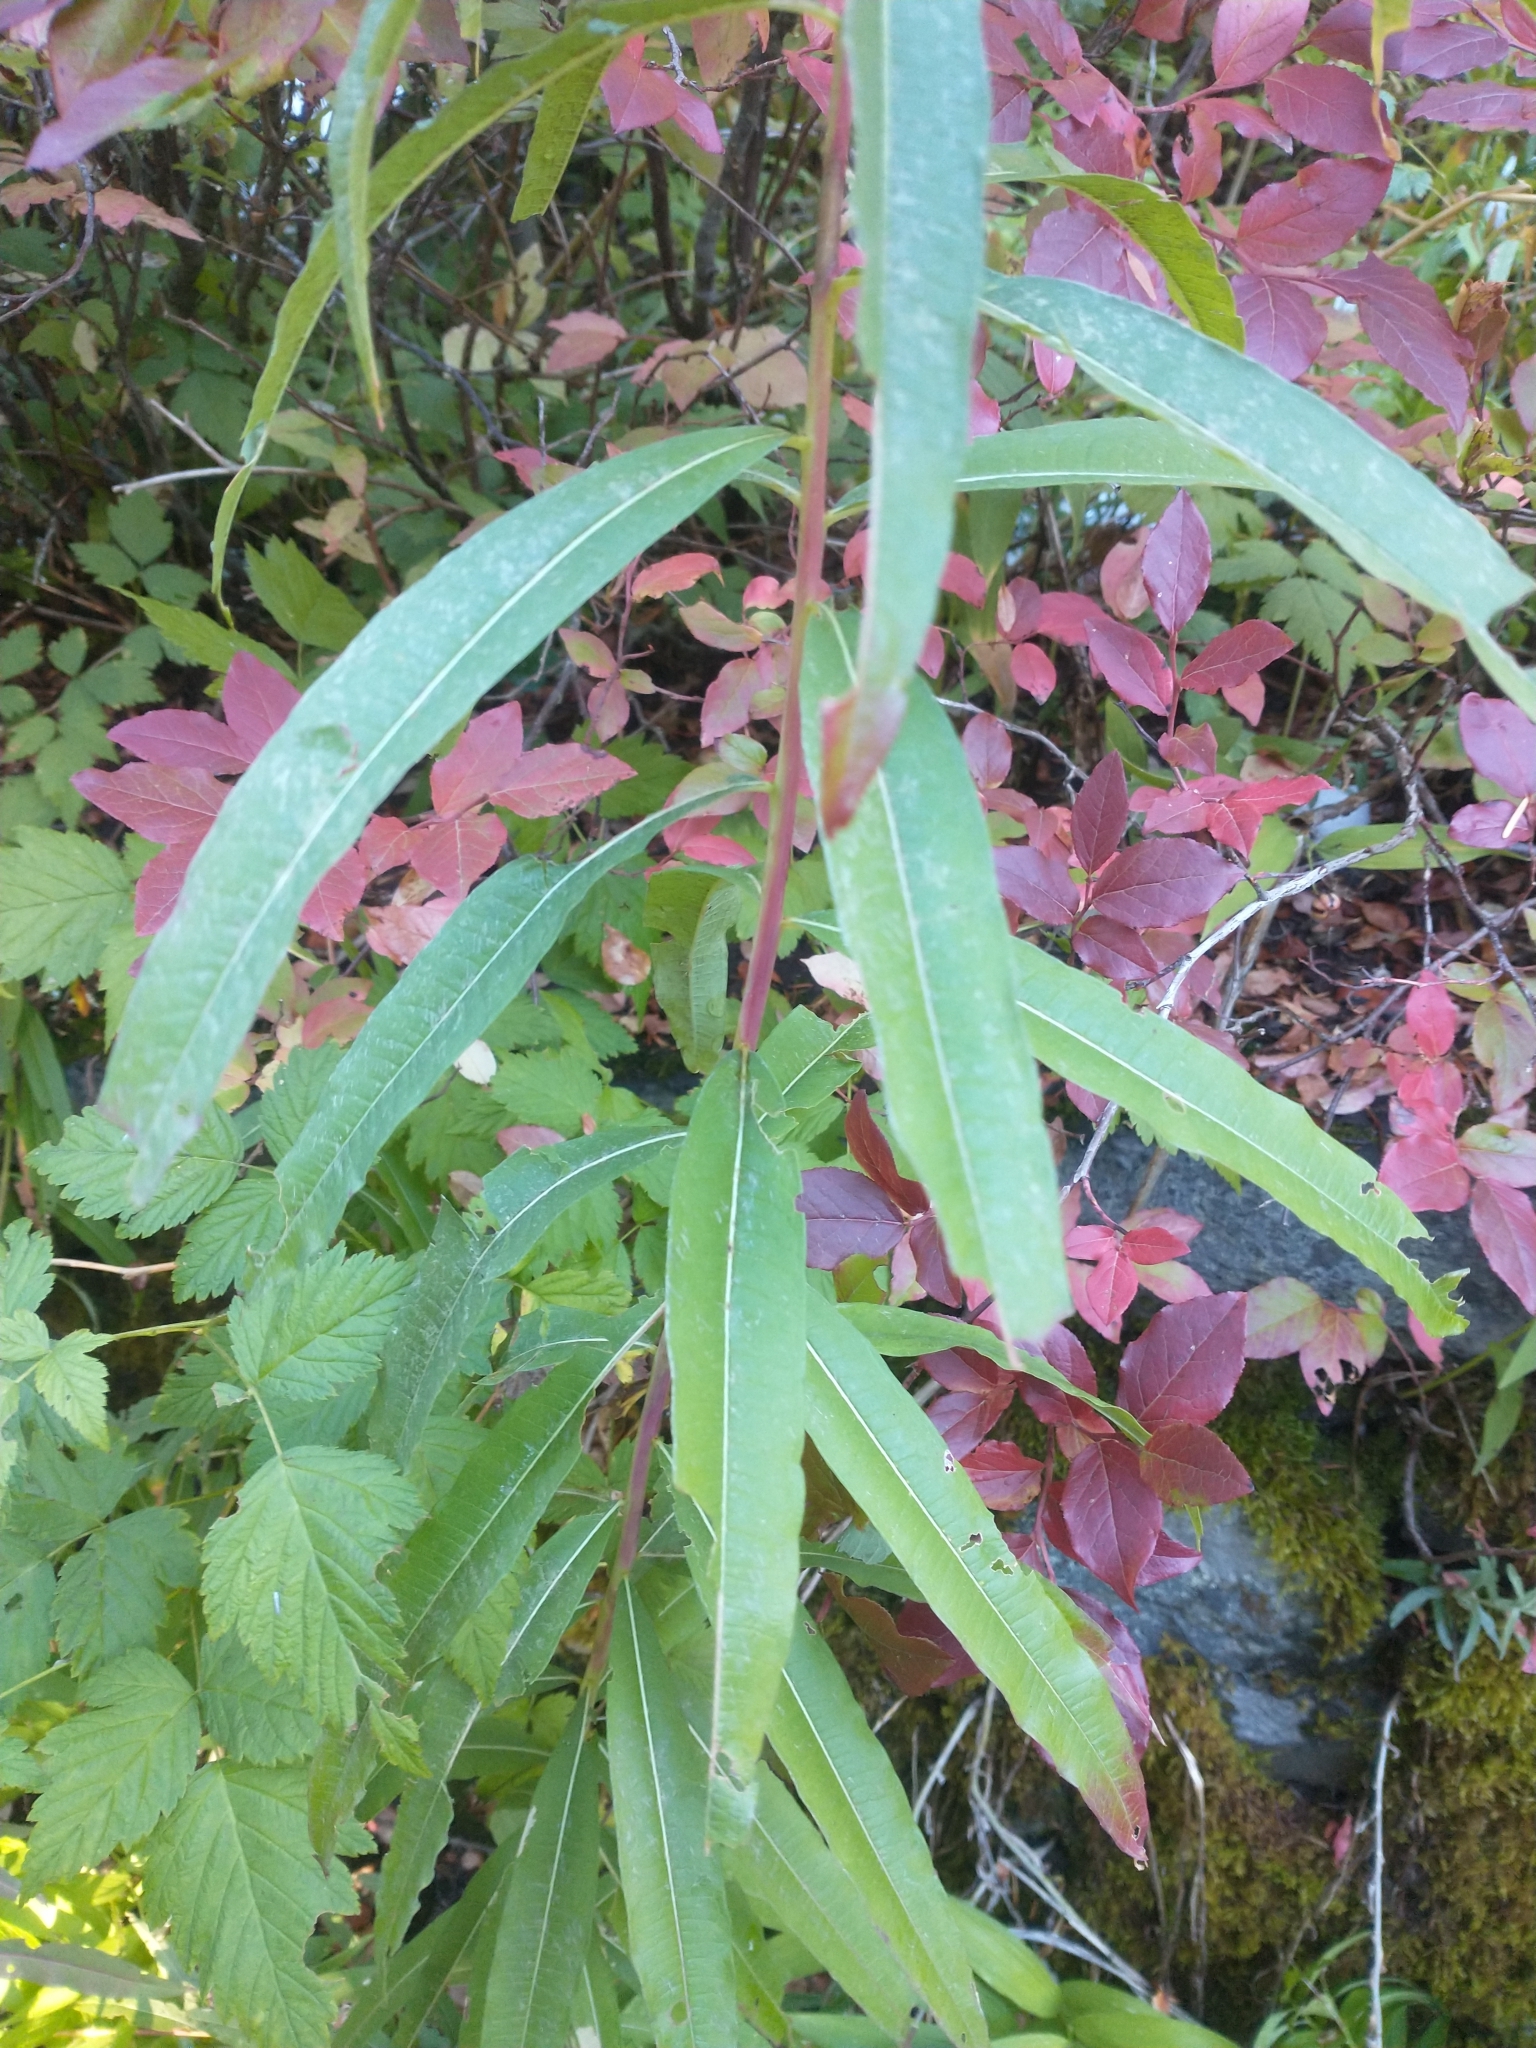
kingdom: Plantae
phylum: Tracheophyta
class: Magnoliopsida
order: Myrtales
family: Onagraceae
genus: Chamaenerion
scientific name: Chamaenerion angustifolium
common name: Fireweed
